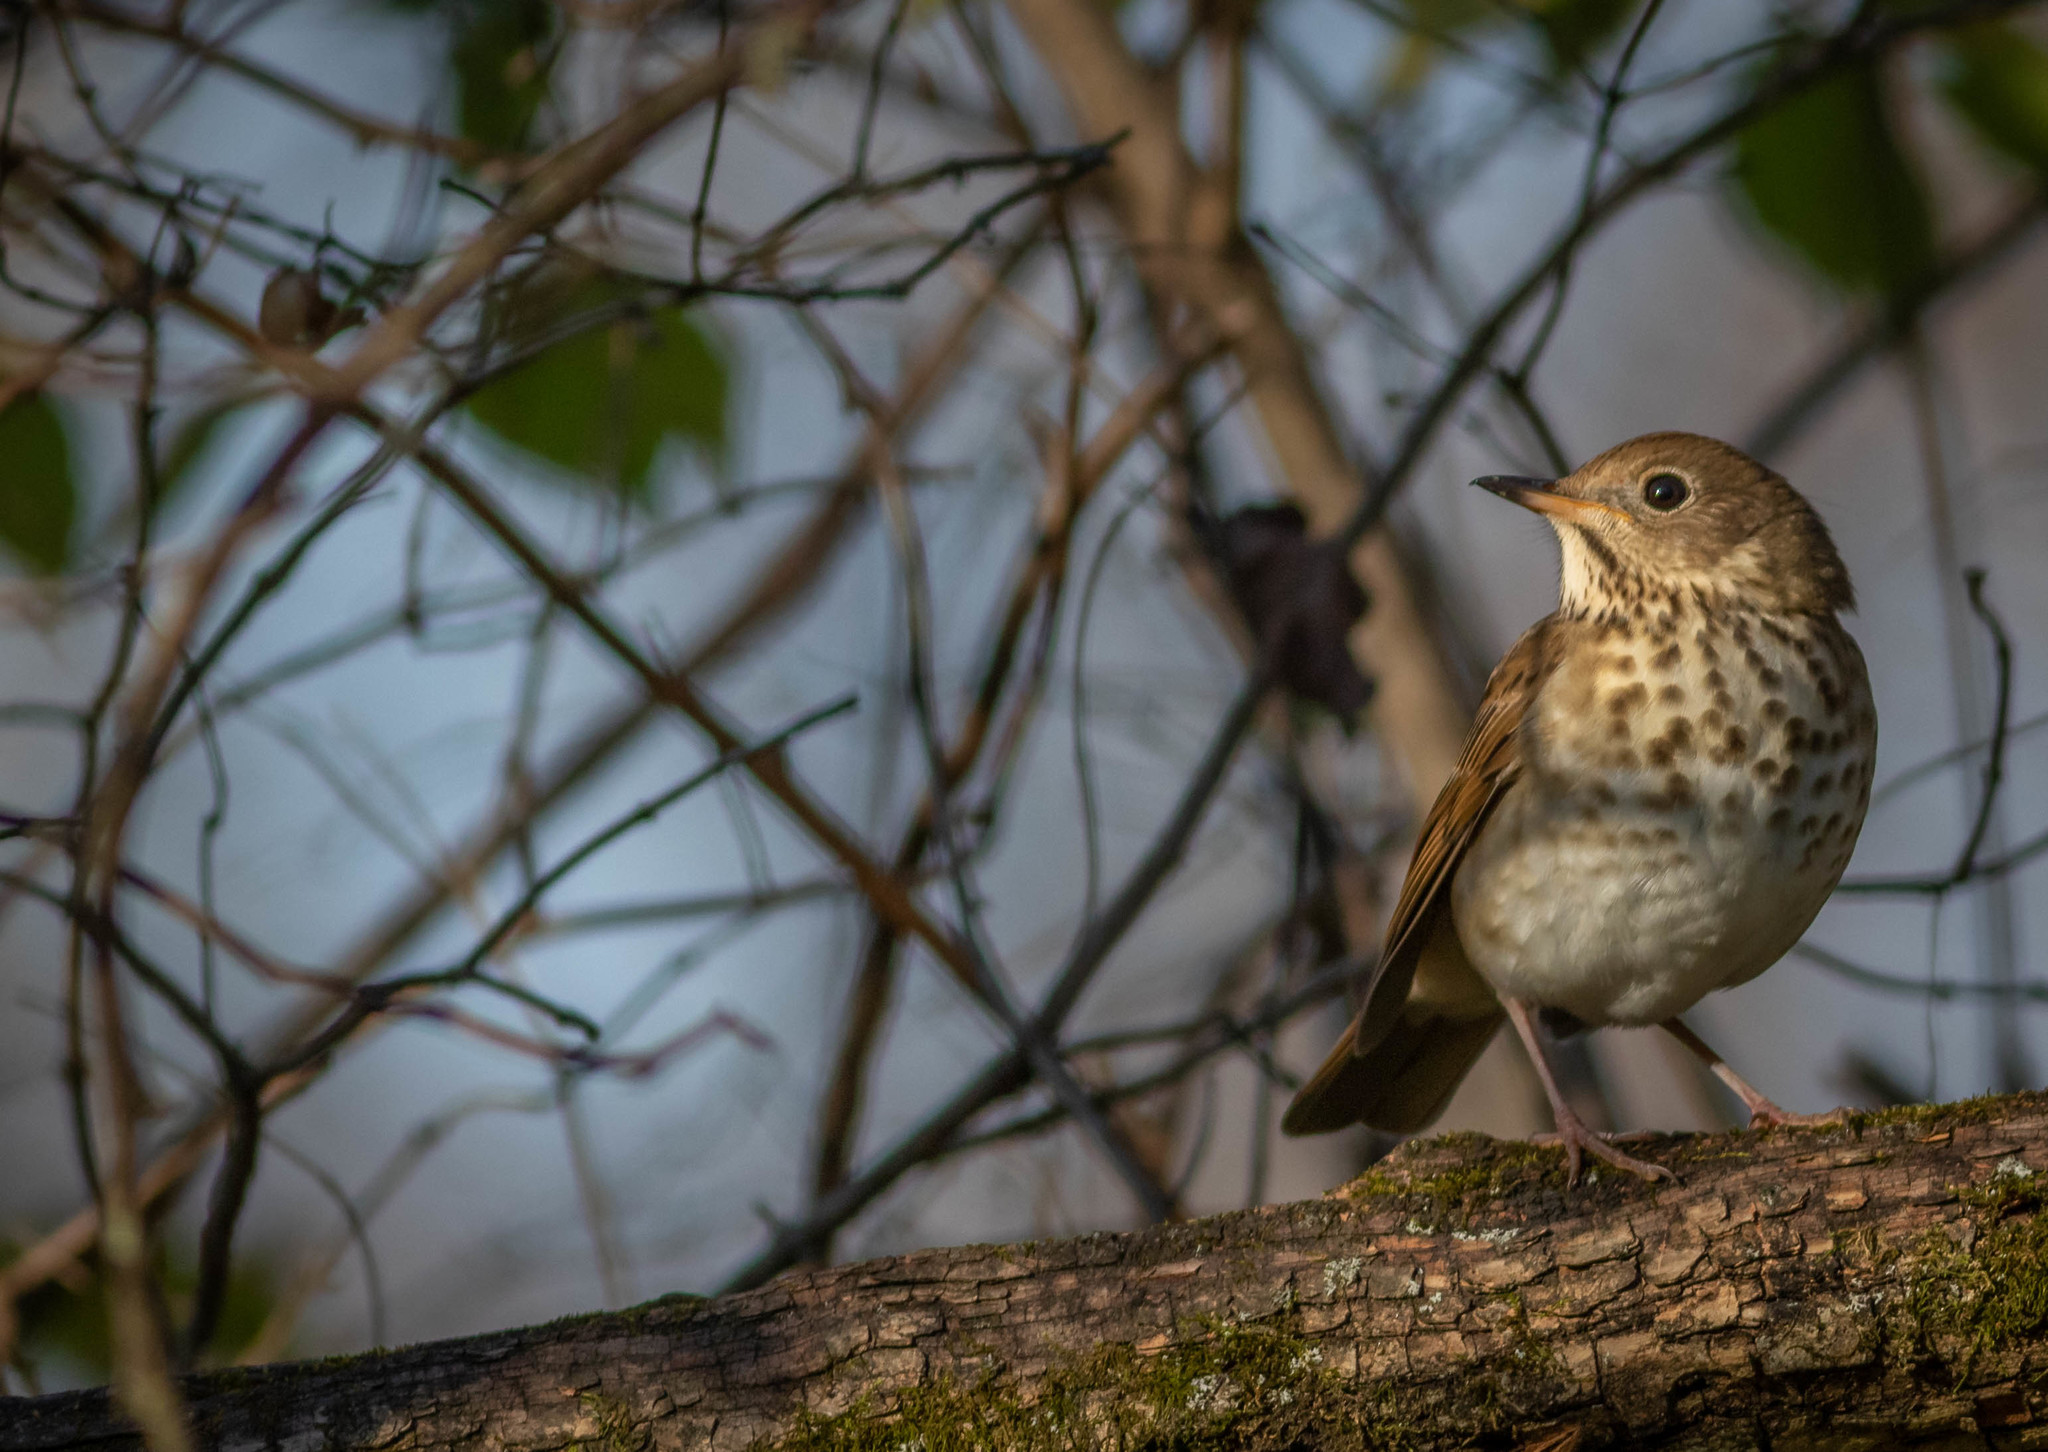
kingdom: Animalia
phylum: Chordata
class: Aves
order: Passeriformes
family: Turdidae
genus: Catharus
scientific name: Catharus guttatus
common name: Hermit thrush
